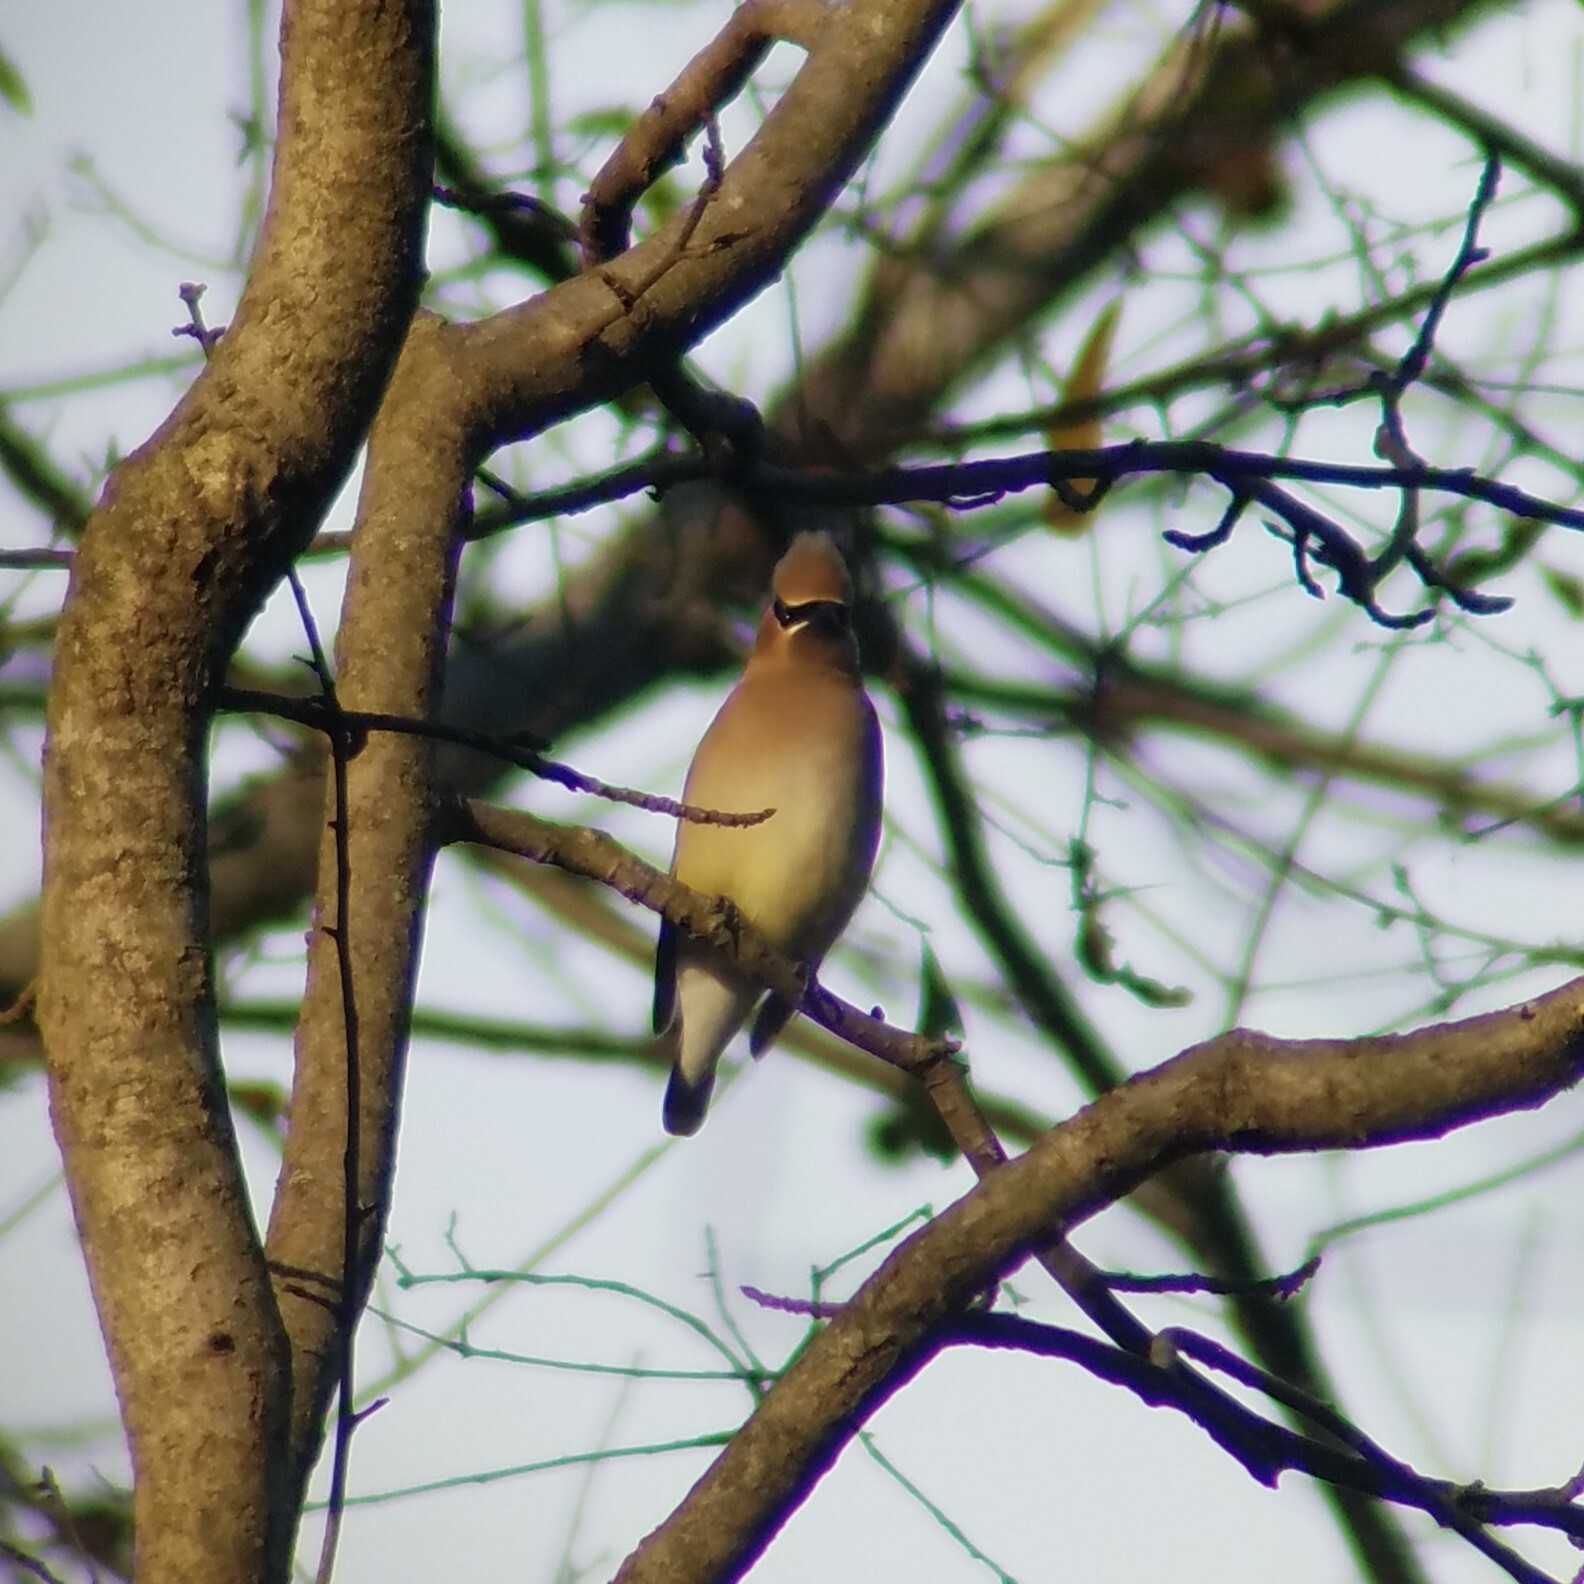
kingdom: Animalia
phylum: Chordata
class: Aves
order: Passeriformes
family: Bombycillidae
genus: Bombycilla
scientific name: Bombycilla cedrorum
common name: Cedar waxwing
